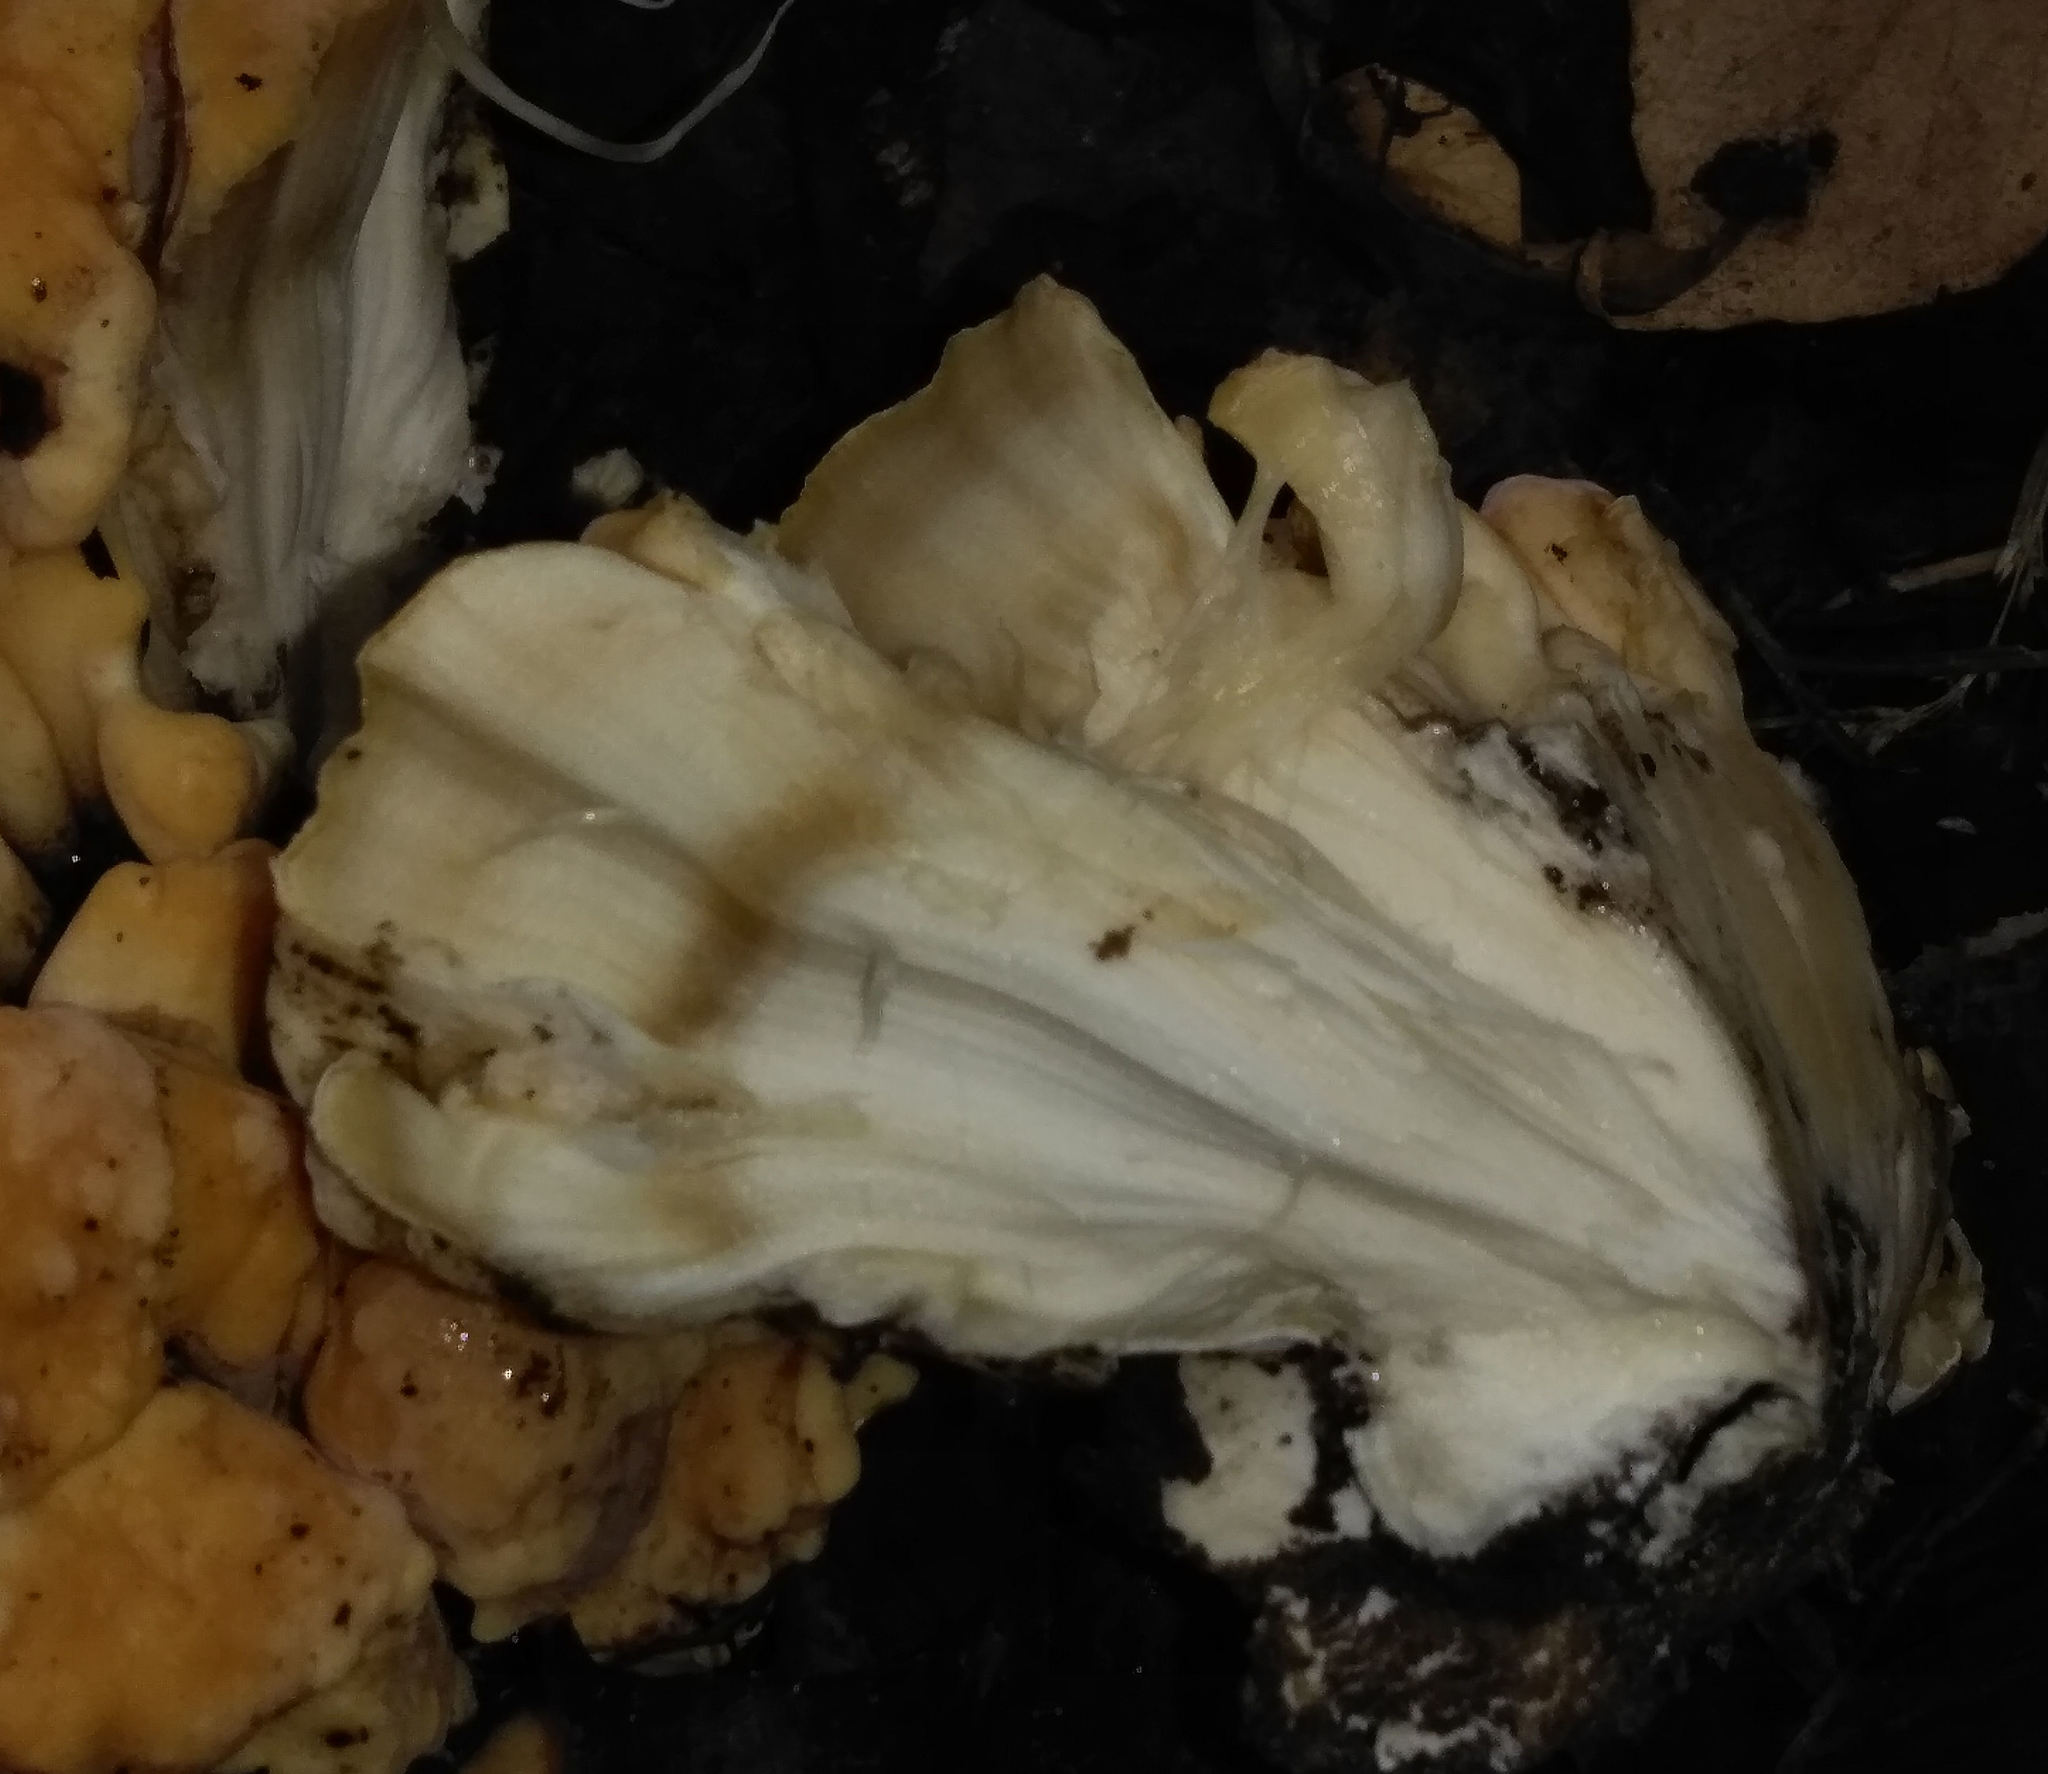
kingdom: Fungi
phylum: Basidiomycota
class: Agaricomycetes
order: Polyporales
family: Meripilaceae
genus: Meripilus
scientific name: Meripilus sumstinei
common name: Black-staining polypore
